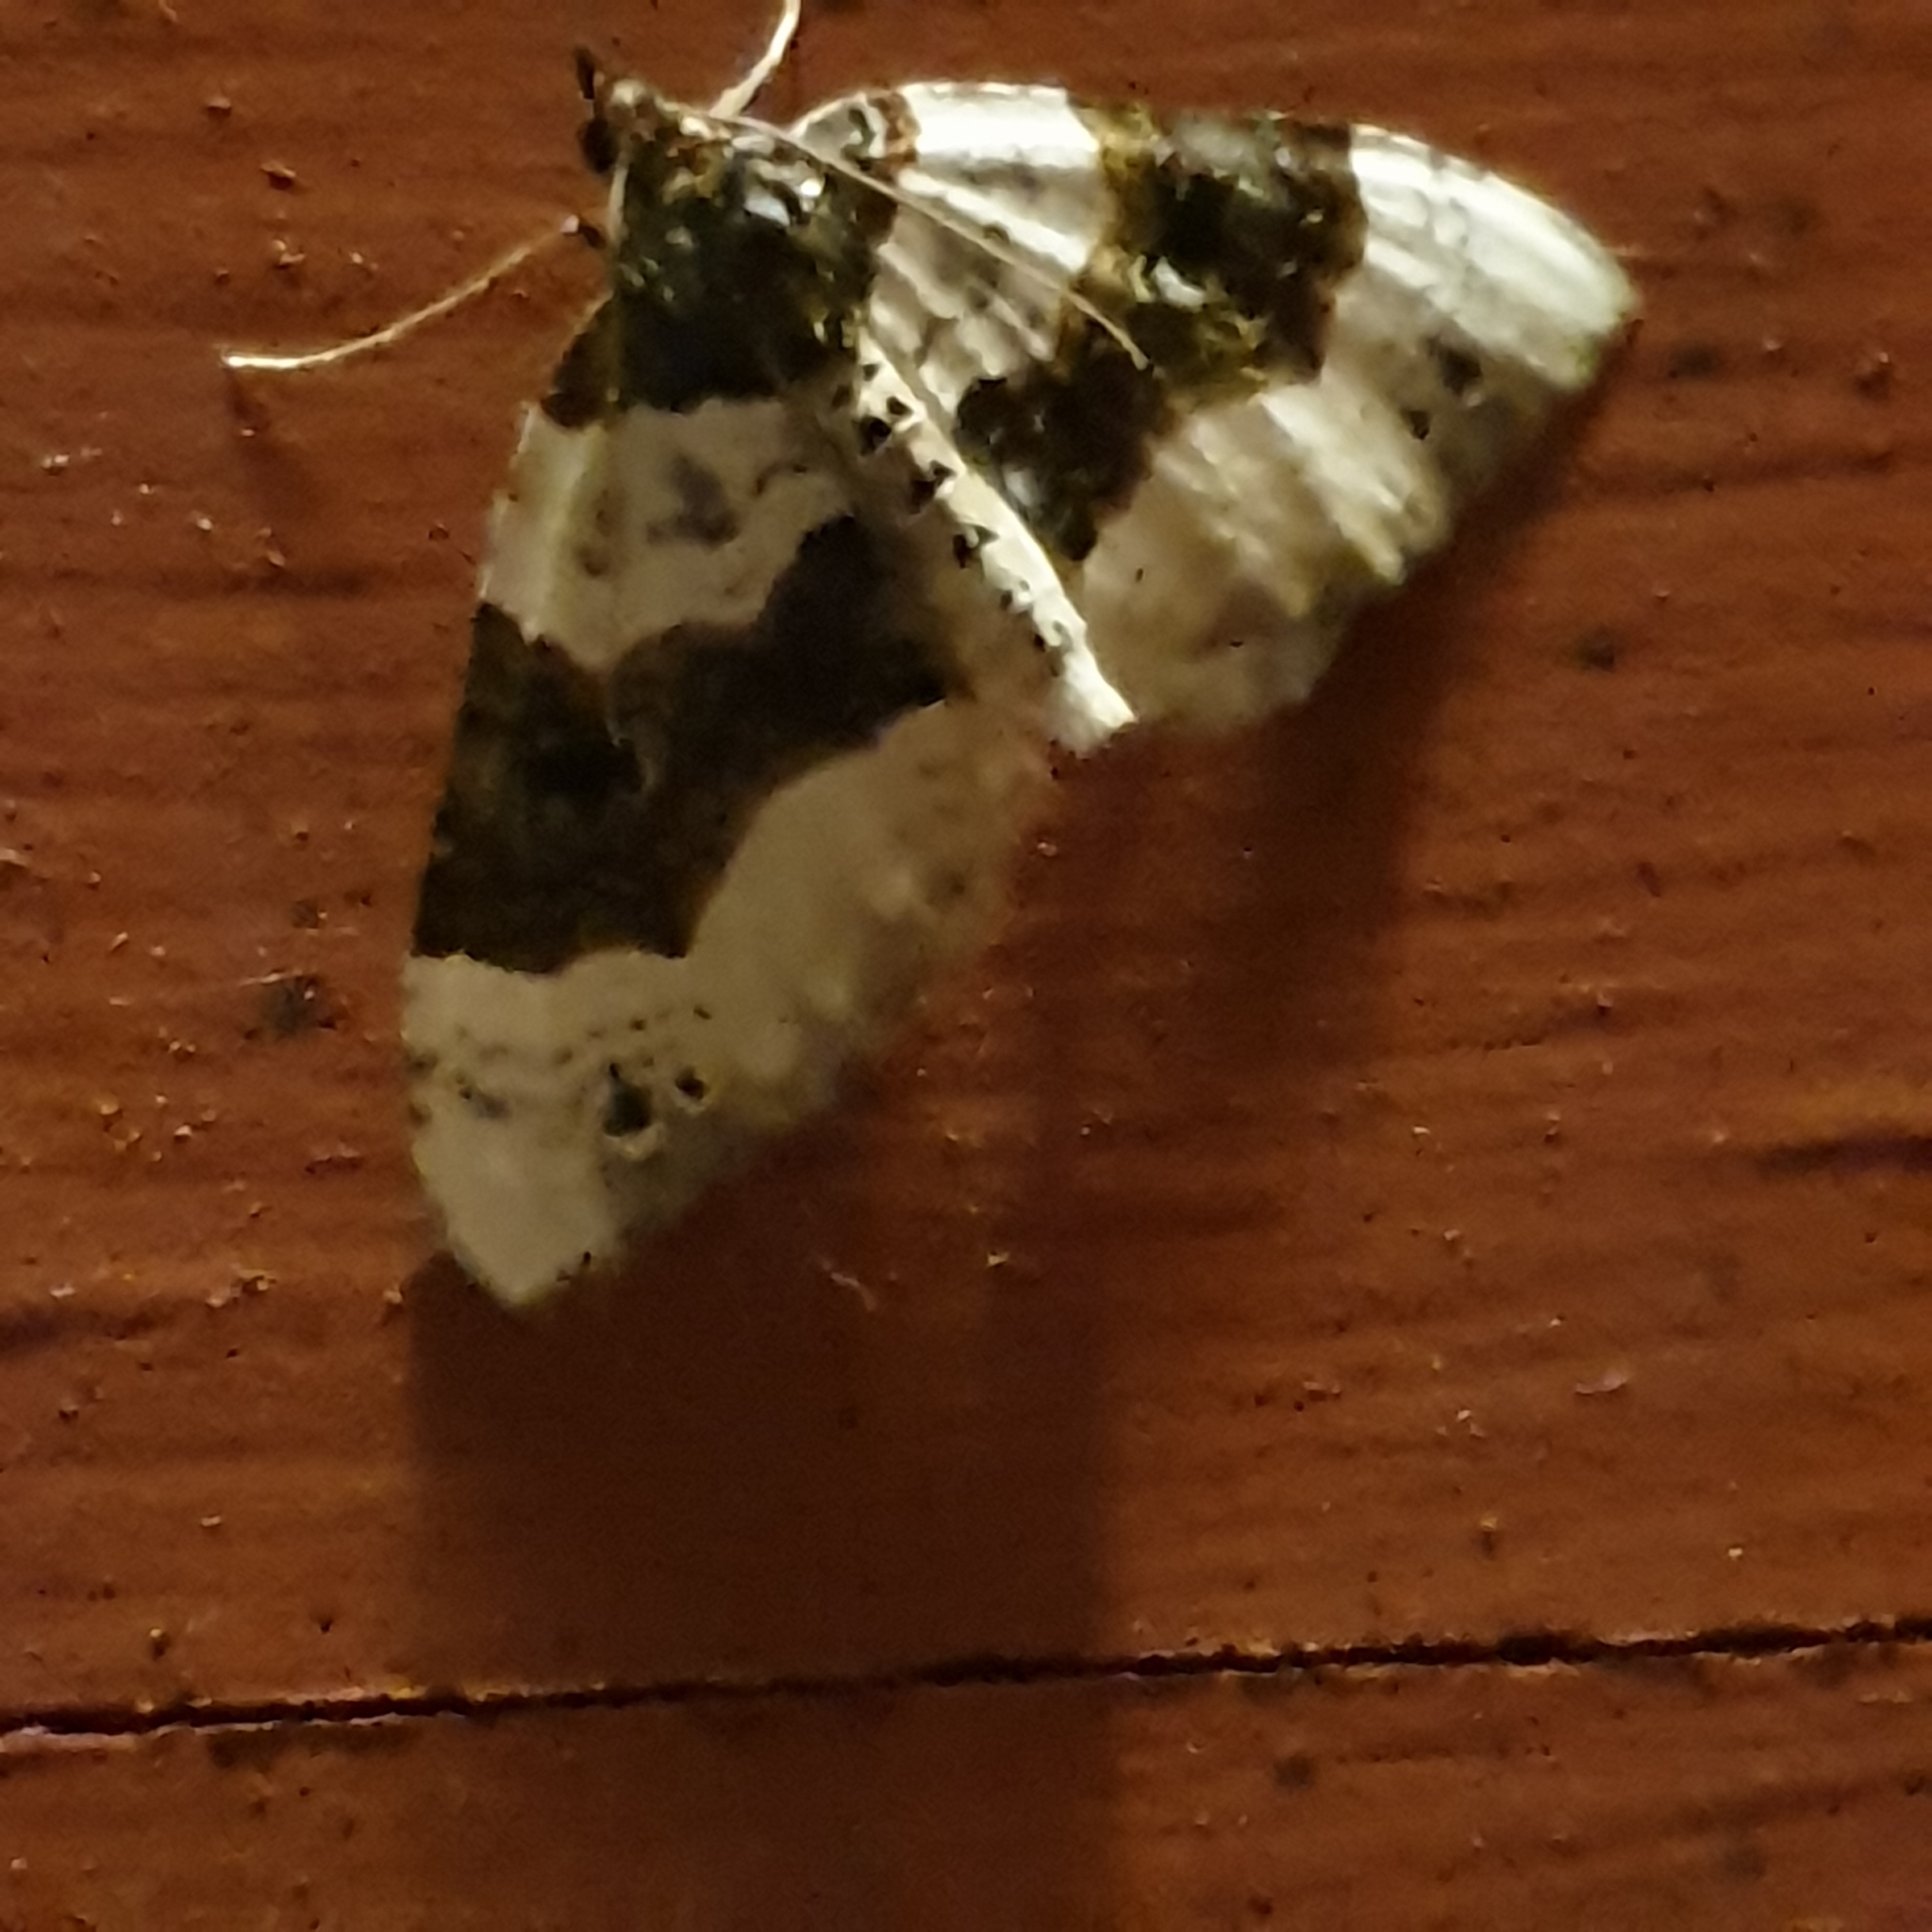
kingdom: Animalia
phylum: Arthropoda
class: Insecta
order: Lepidoptera
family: Geometridae
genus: Cosmorhoe
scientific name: Cosmorhoe ocellata
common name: Purple bar
